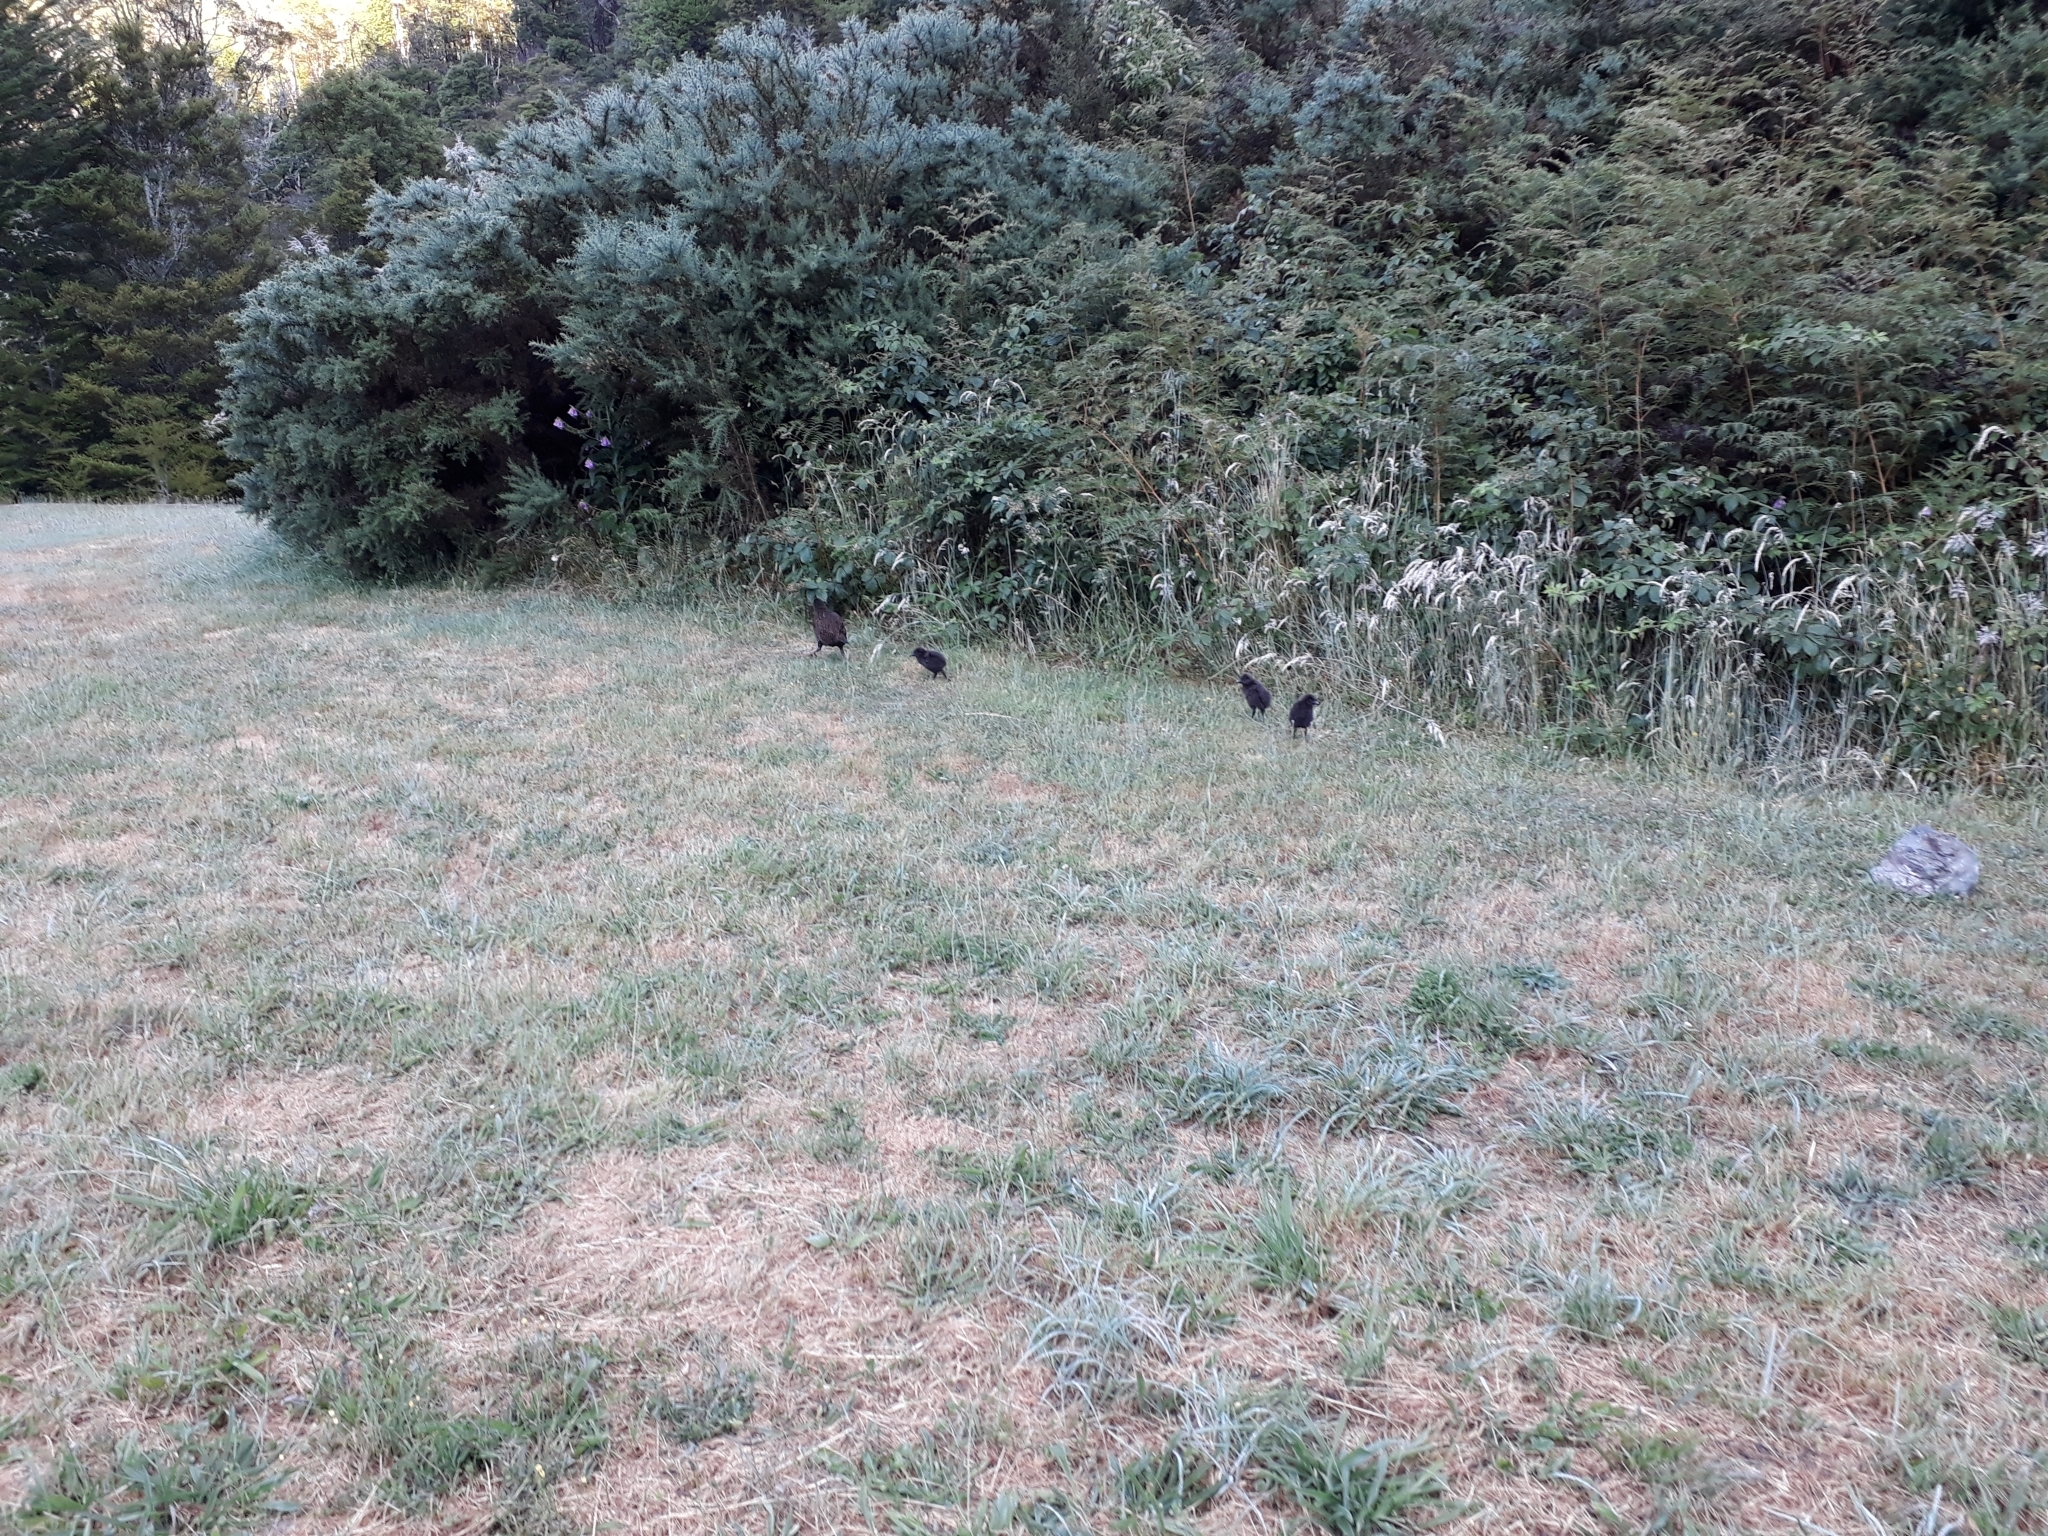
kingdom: Animalia
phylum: Chordata
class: Aves
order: Gruiformes
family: Rallidae
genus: Gallirallus
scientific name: Gallirallus australis
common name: Weka
